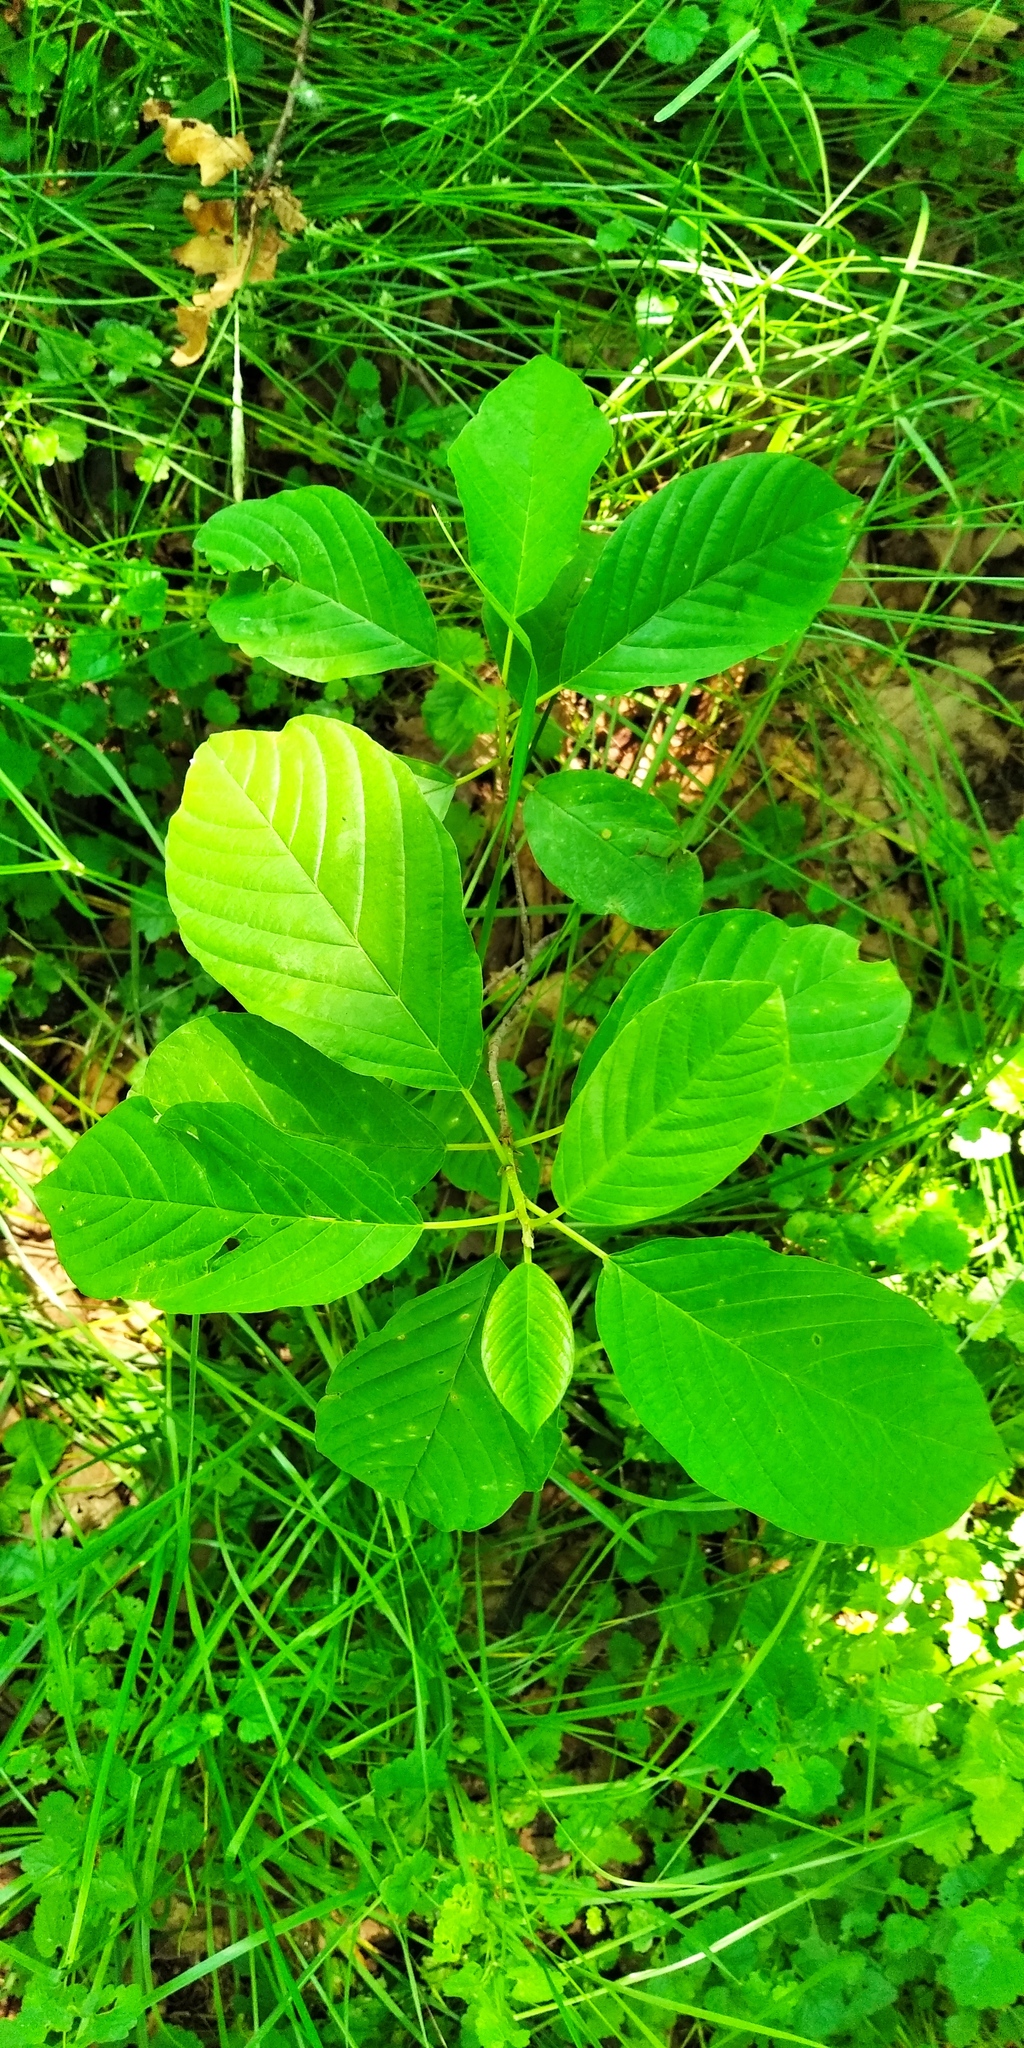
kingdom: Plantae
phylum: Tracheophyta
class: Magnoliopsida
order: Rosales
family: Rhamnaceae
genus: Frangula
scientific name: Frangula alnus
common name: Alder buckthorn
